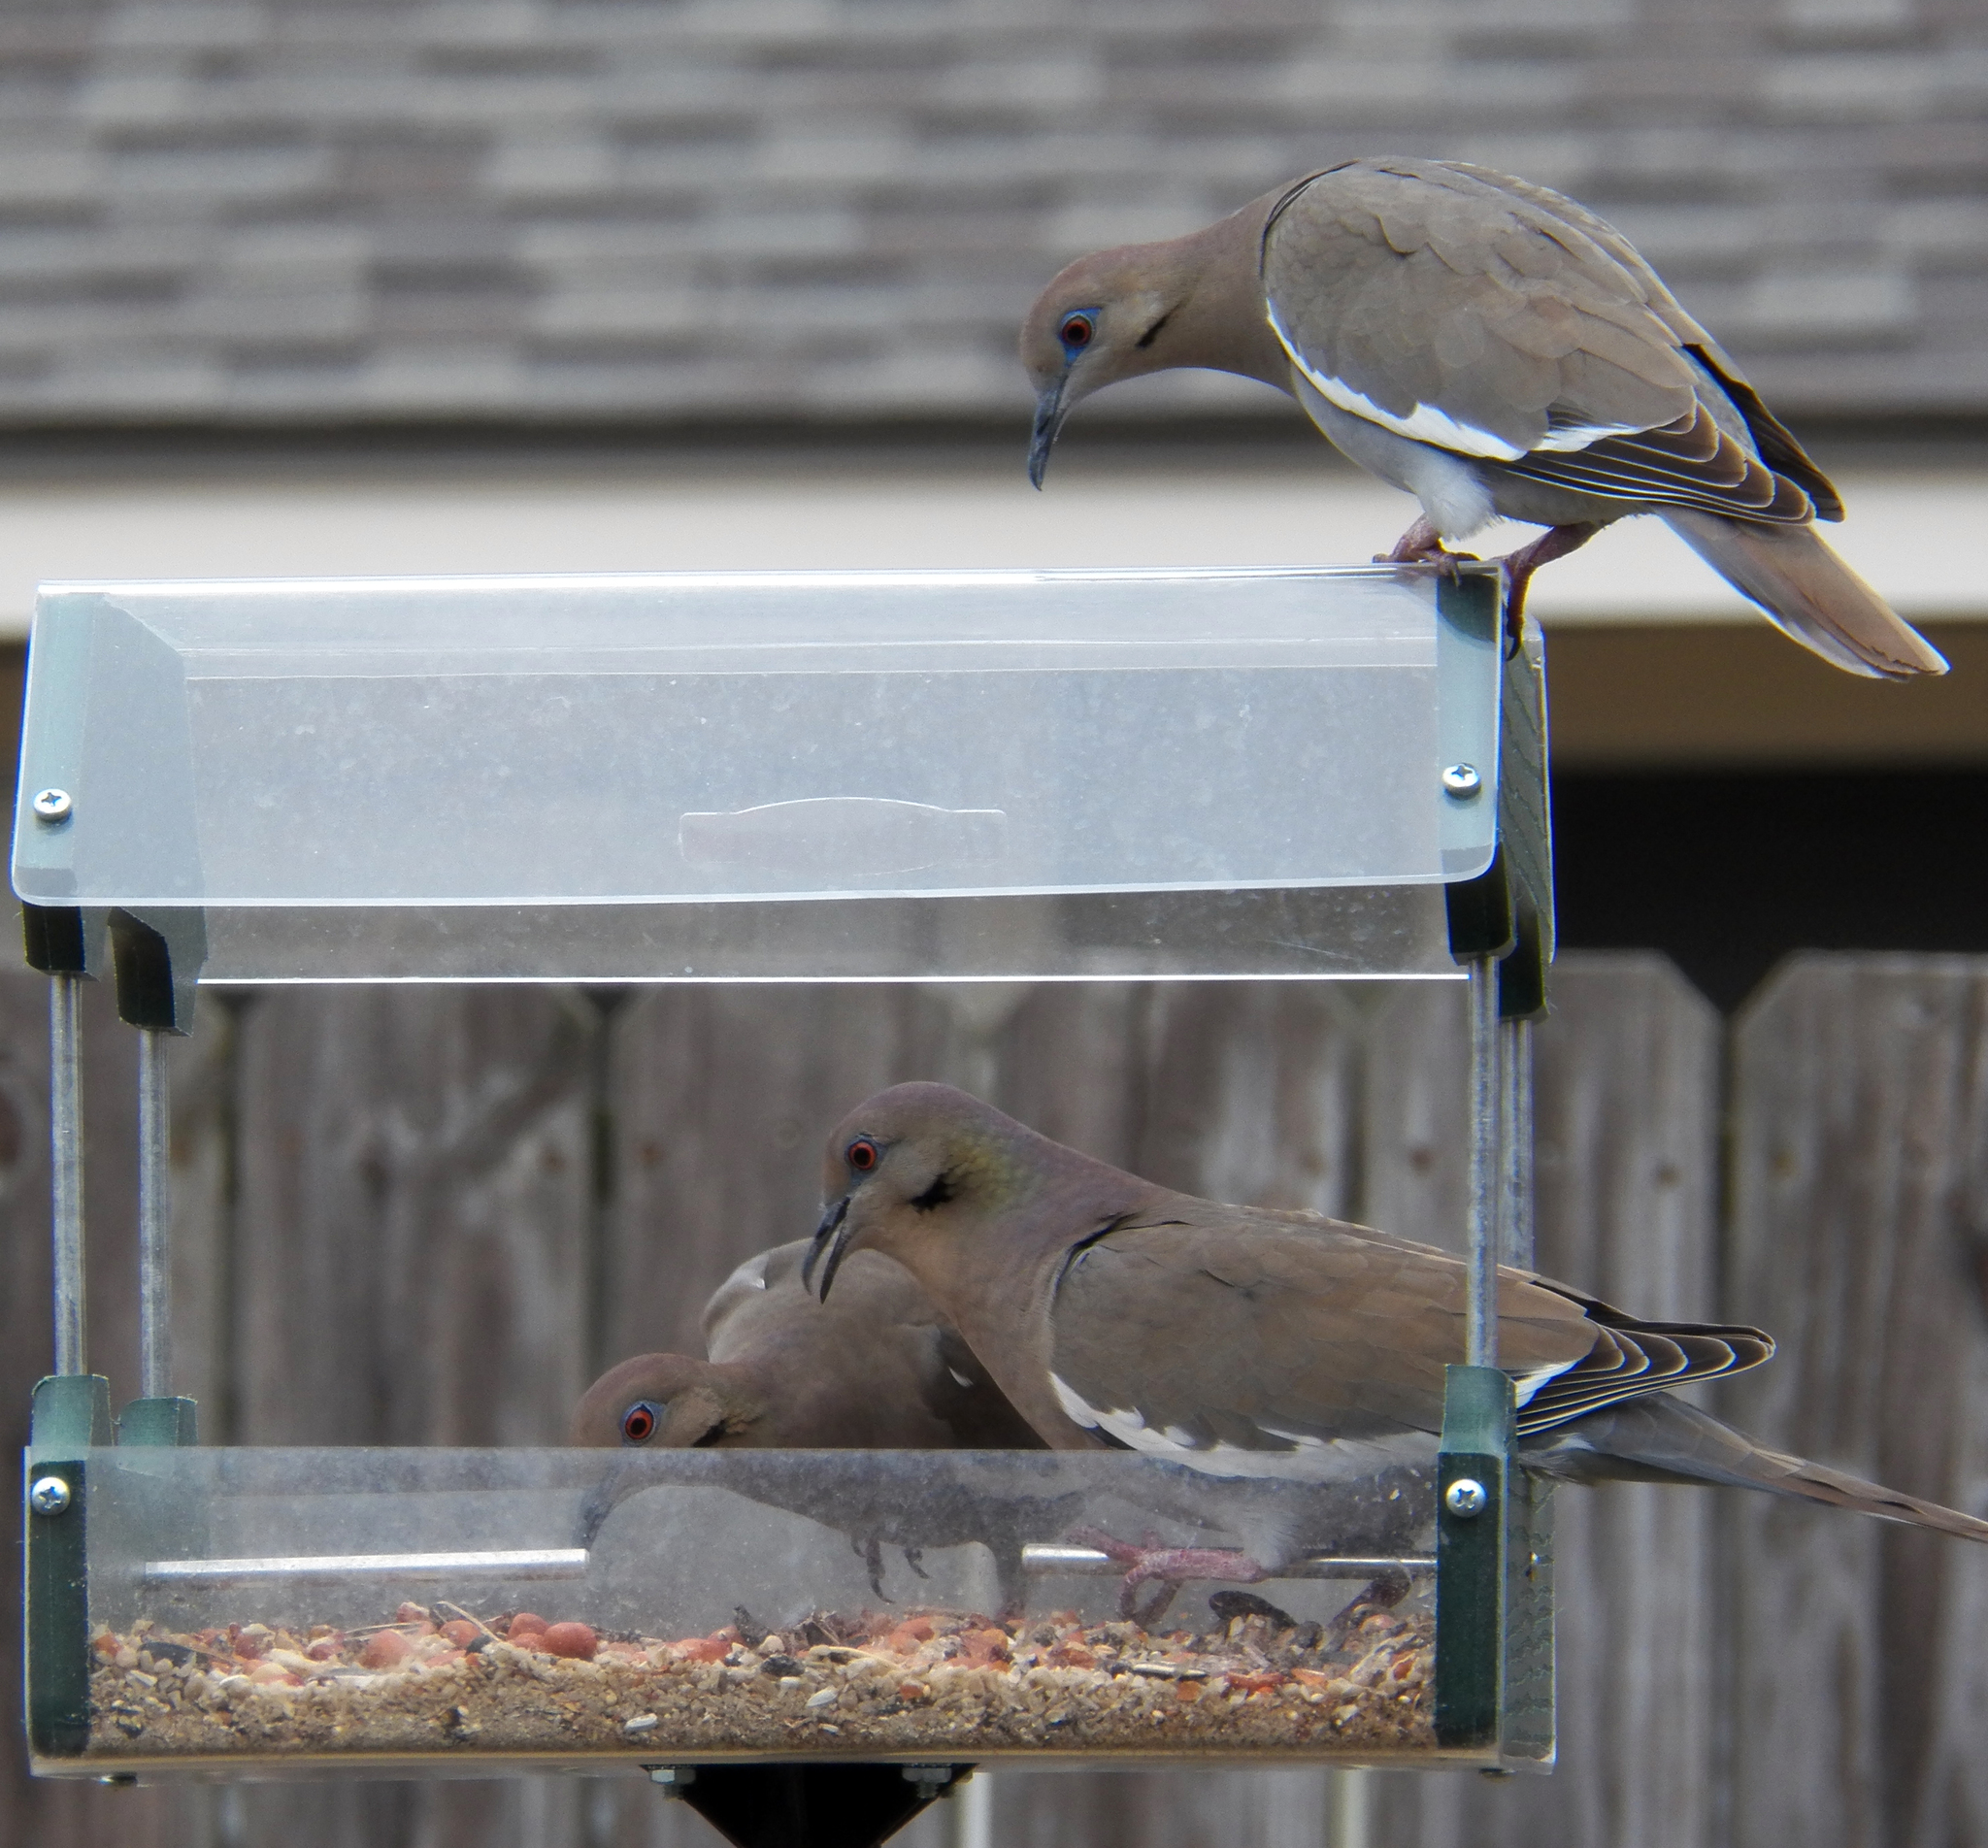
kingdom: Animalia
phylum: Chordata
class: Aves
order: Columbiformes
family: Columbidae
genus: Zenaida
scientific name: Zenaida asiatica
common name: White-winged dove
